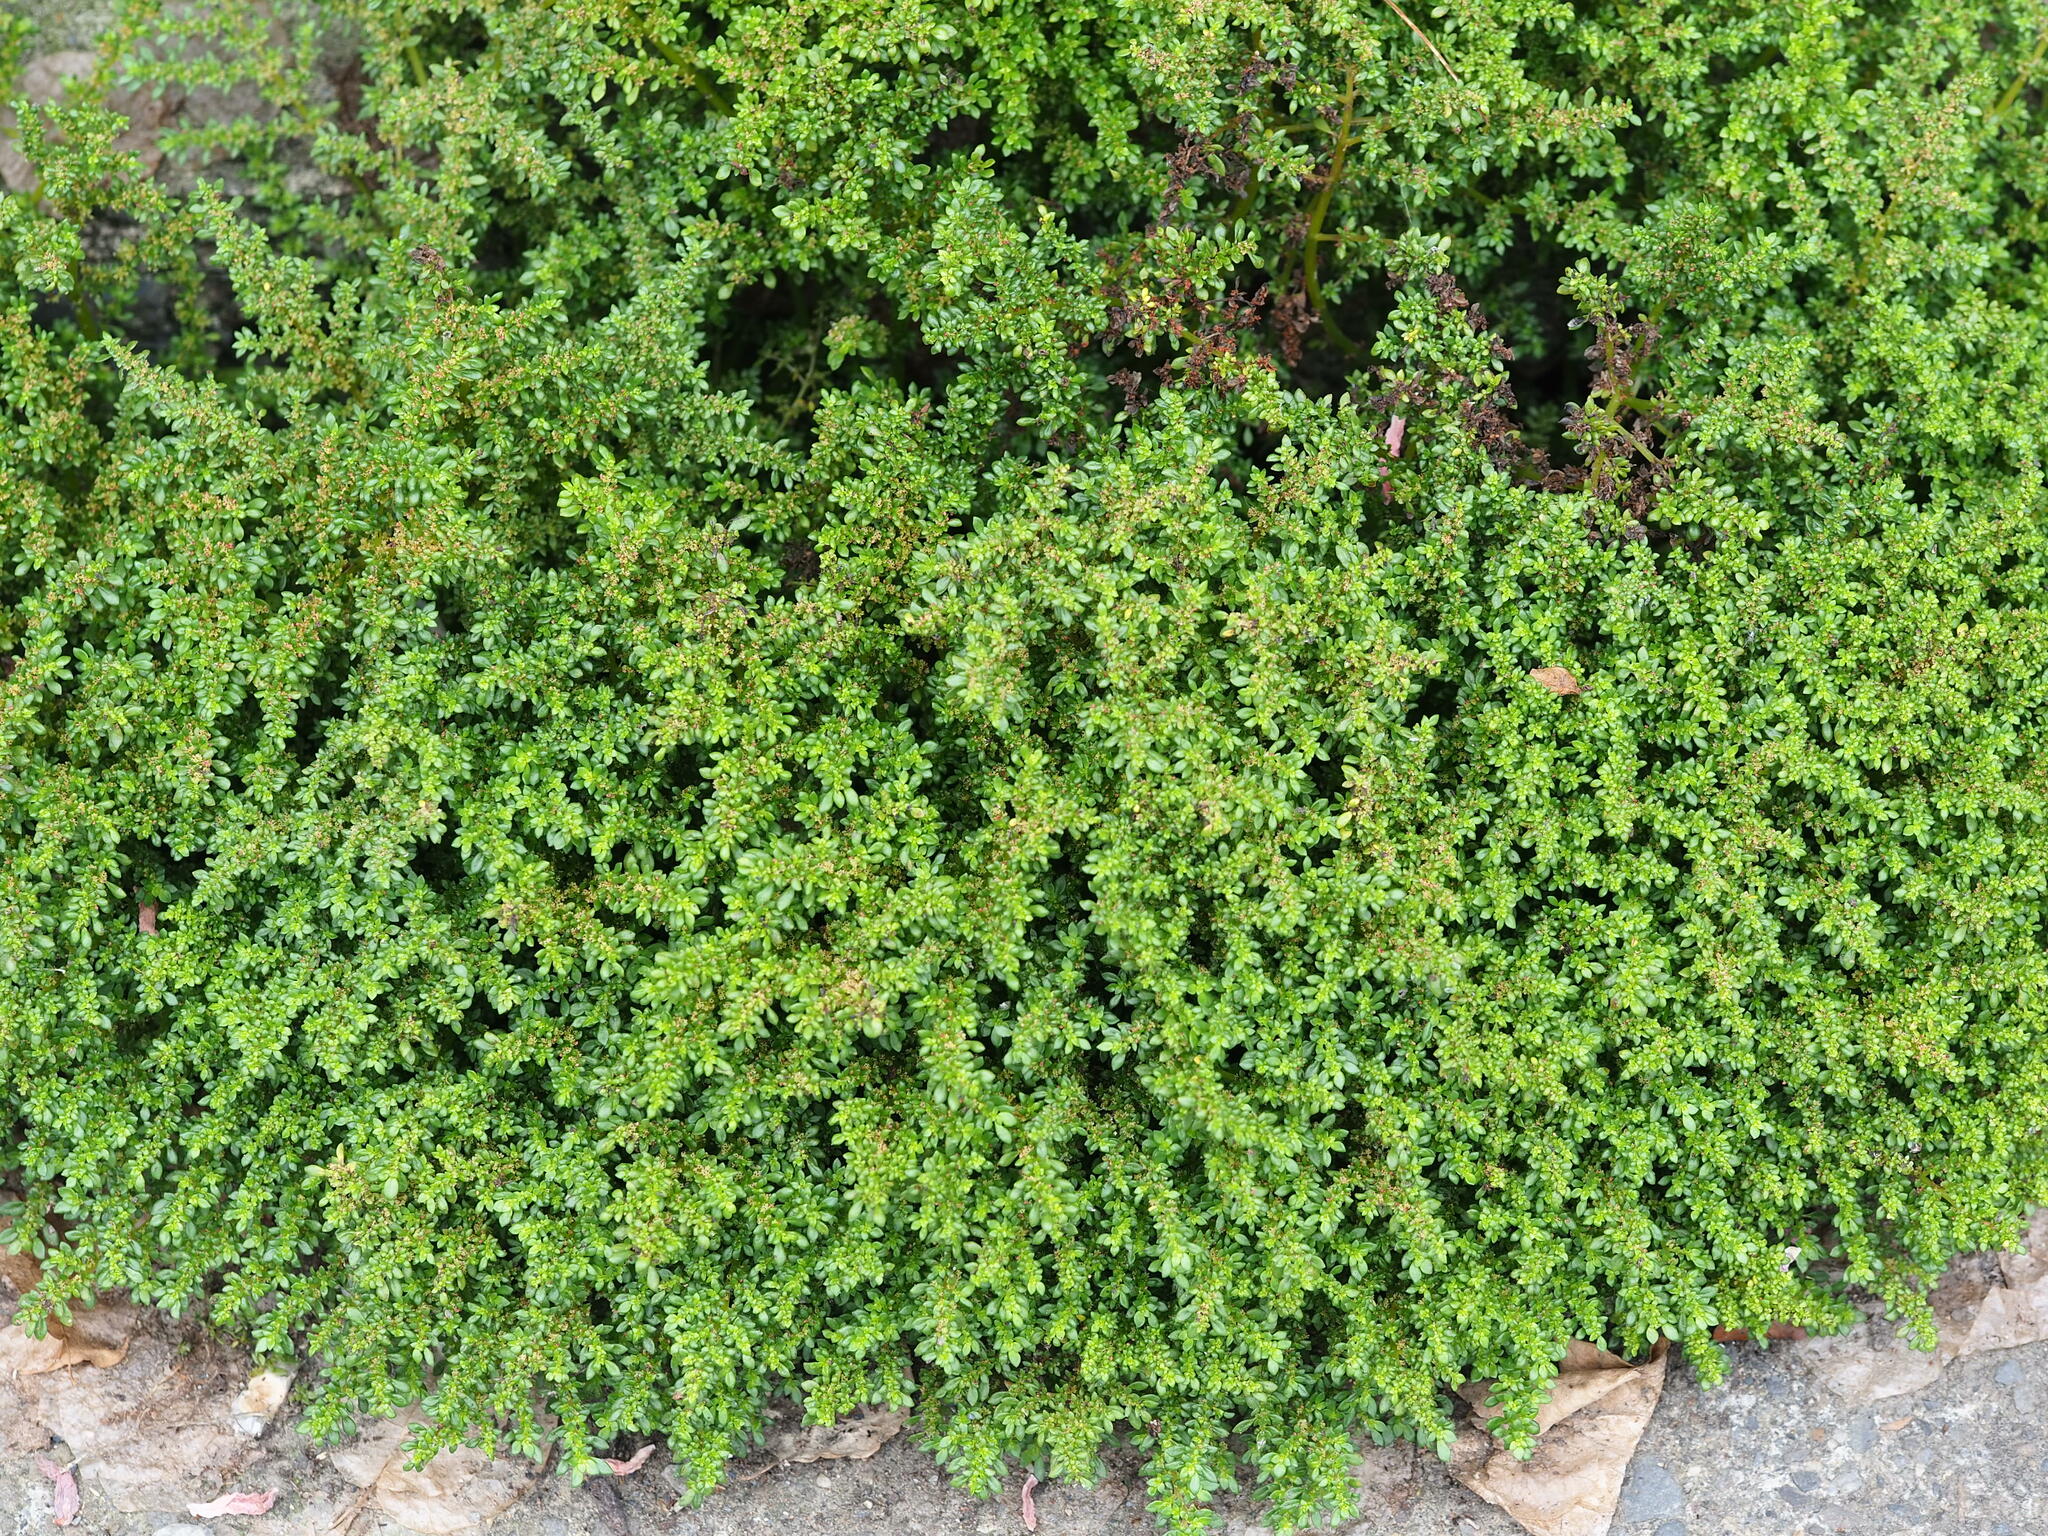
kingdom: Plantae
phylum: Tracheophyta
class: Magnoliopsida
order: Rosales
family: Urticaceae
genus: Pilea
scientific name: Pilea microphylla
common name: Artillery-plant
